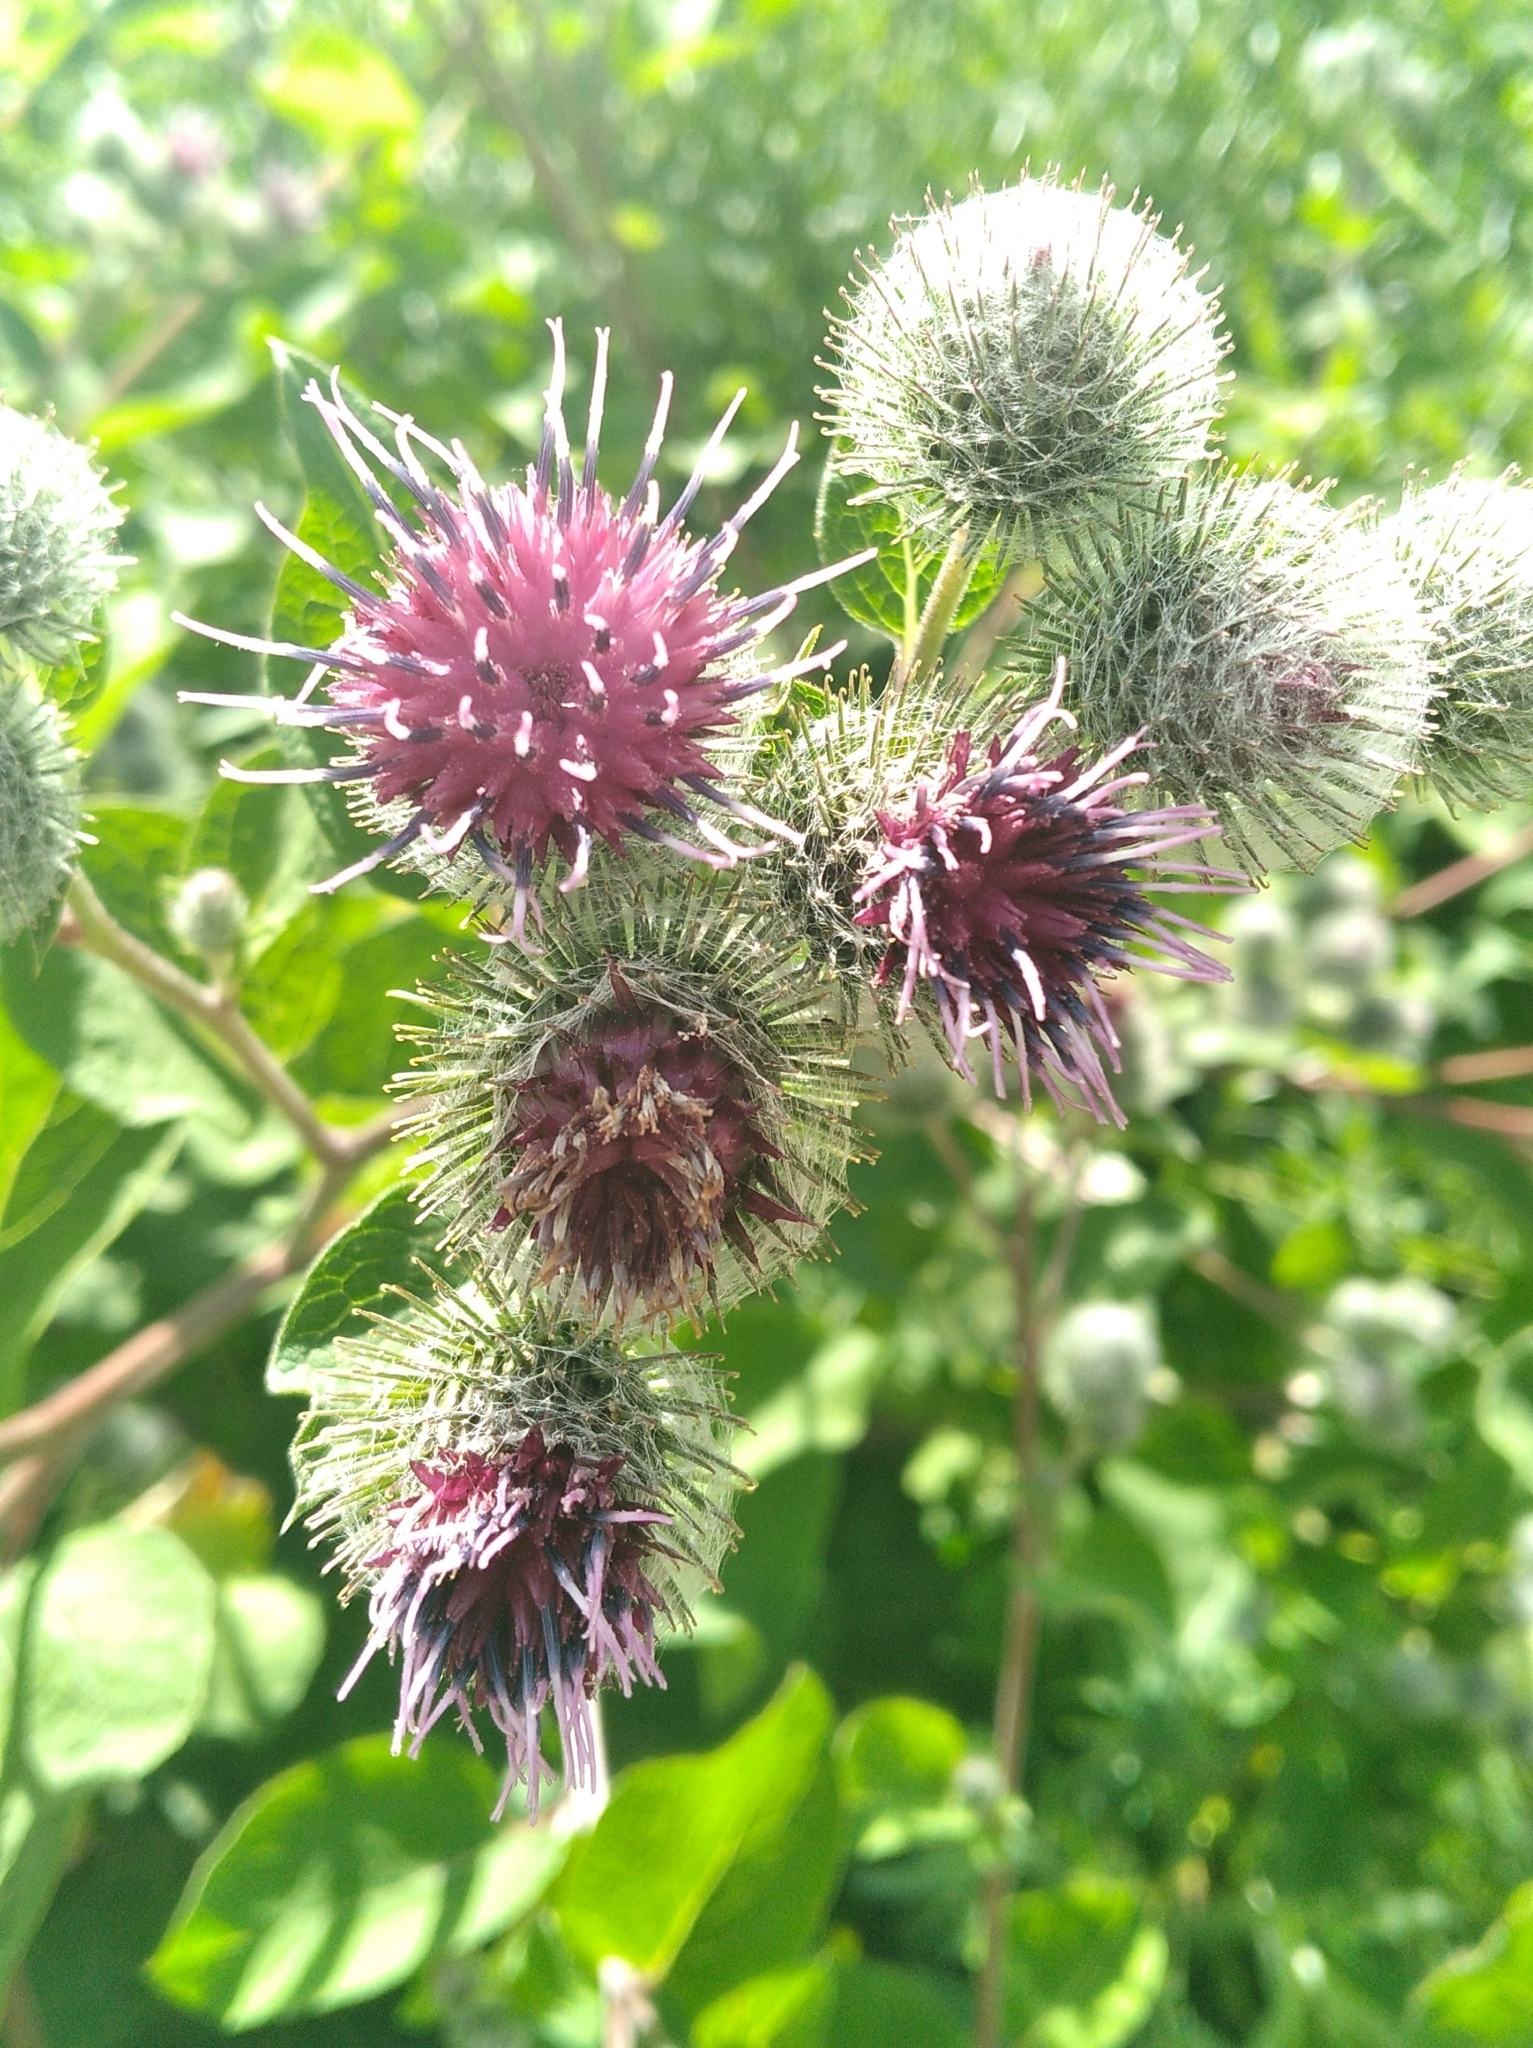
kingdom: Plantae
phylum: Tracheophyta
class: Magnoliopsida
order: Asterales
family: Asteraceae
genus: Arctium
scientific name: Arctium tomentosum
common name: Woolly burdock
